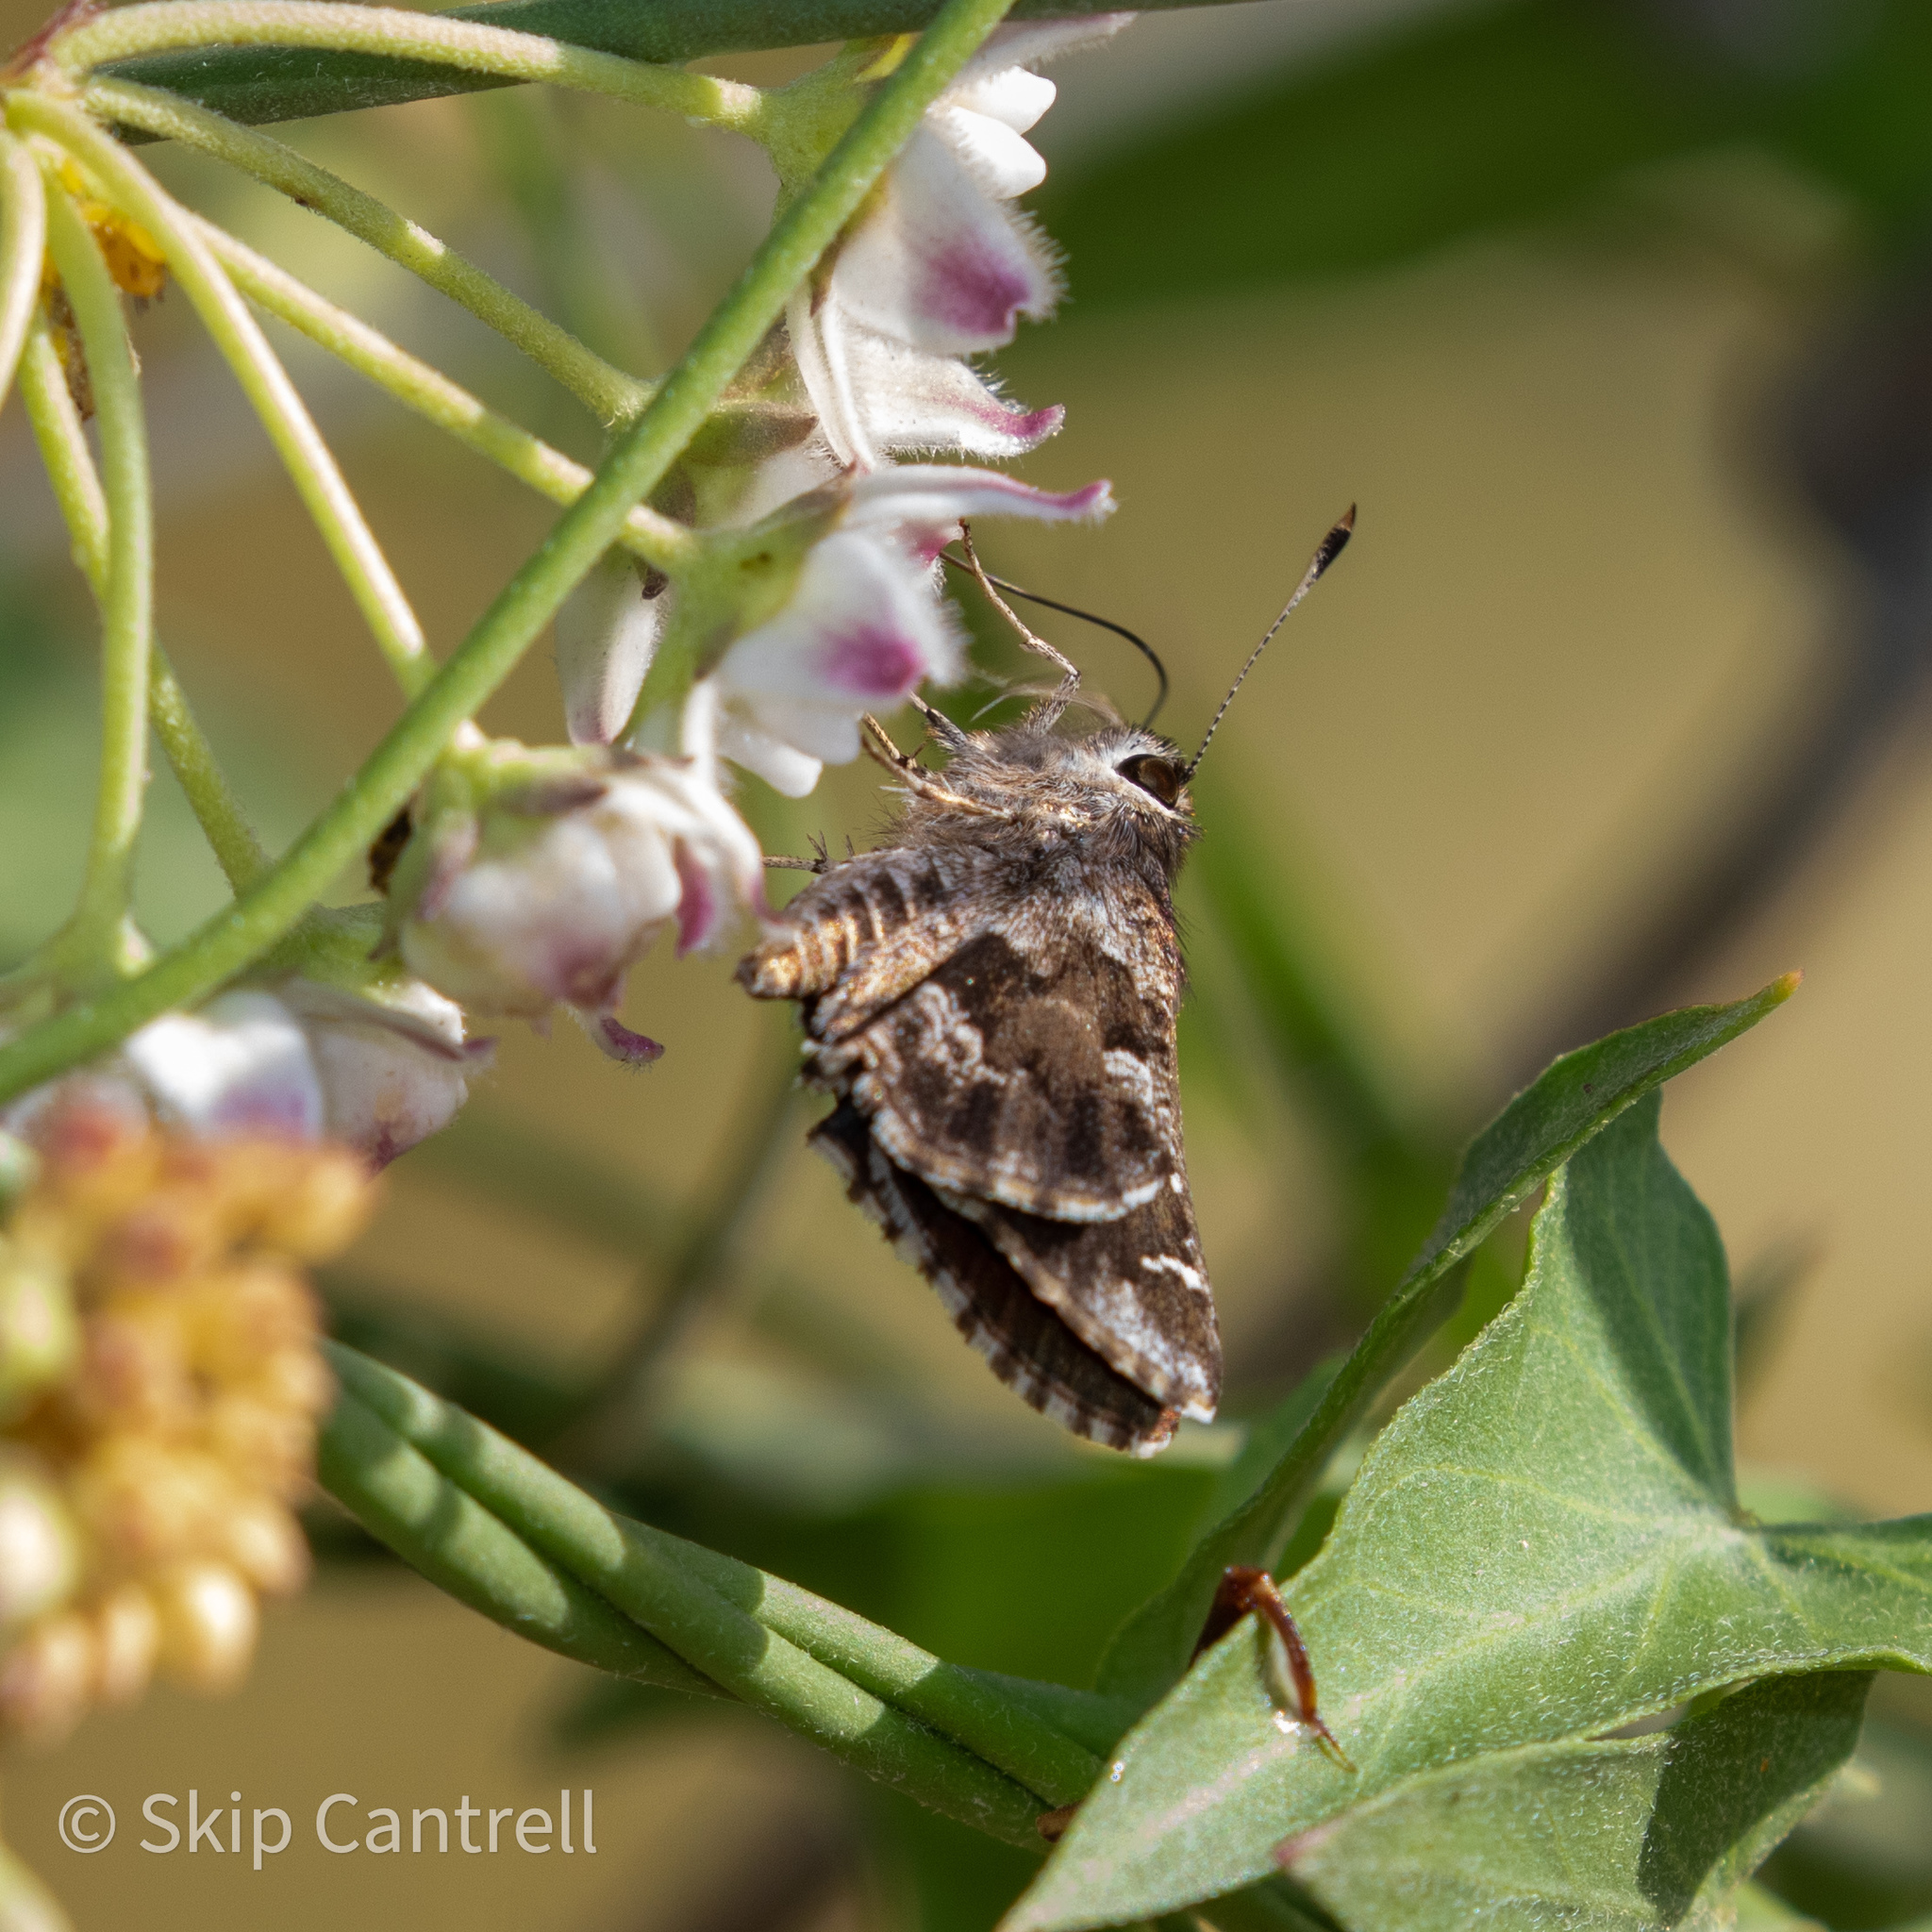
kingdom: Animalia
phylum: Arthropoda
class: Insecta
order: Lepidoptera
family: Hesperiidae
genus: Mastor
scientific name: Mastor nysa
